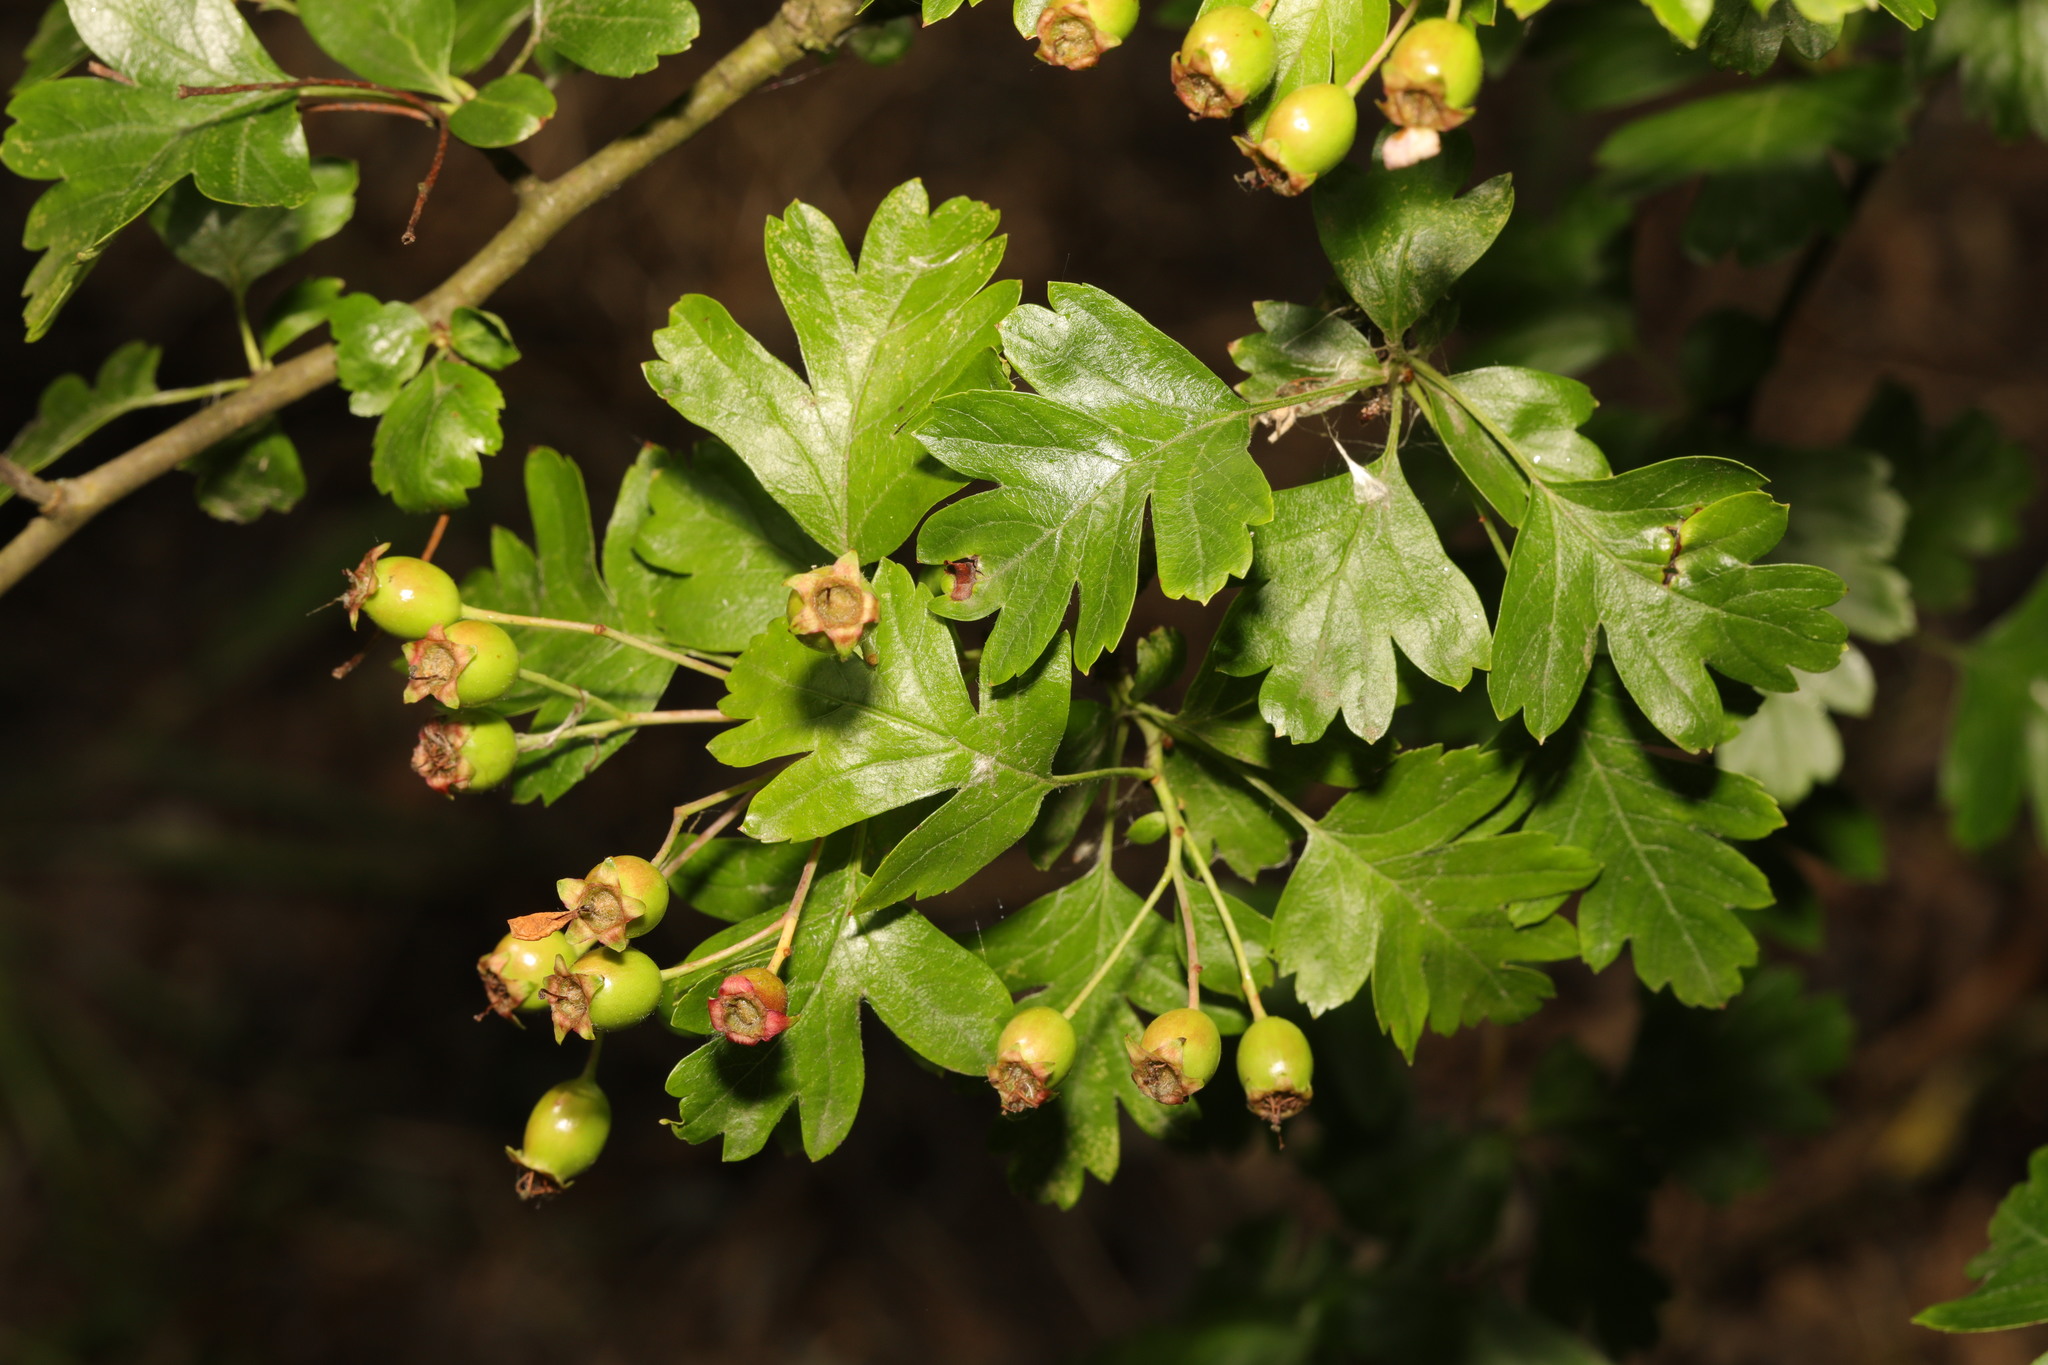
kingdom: Plantae
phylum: Tracheophyta
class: Magnoliopsida
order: Rosales
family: Rosaceae
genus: Crataegus
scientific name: Crataegus monogyna
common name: Hawthorn
